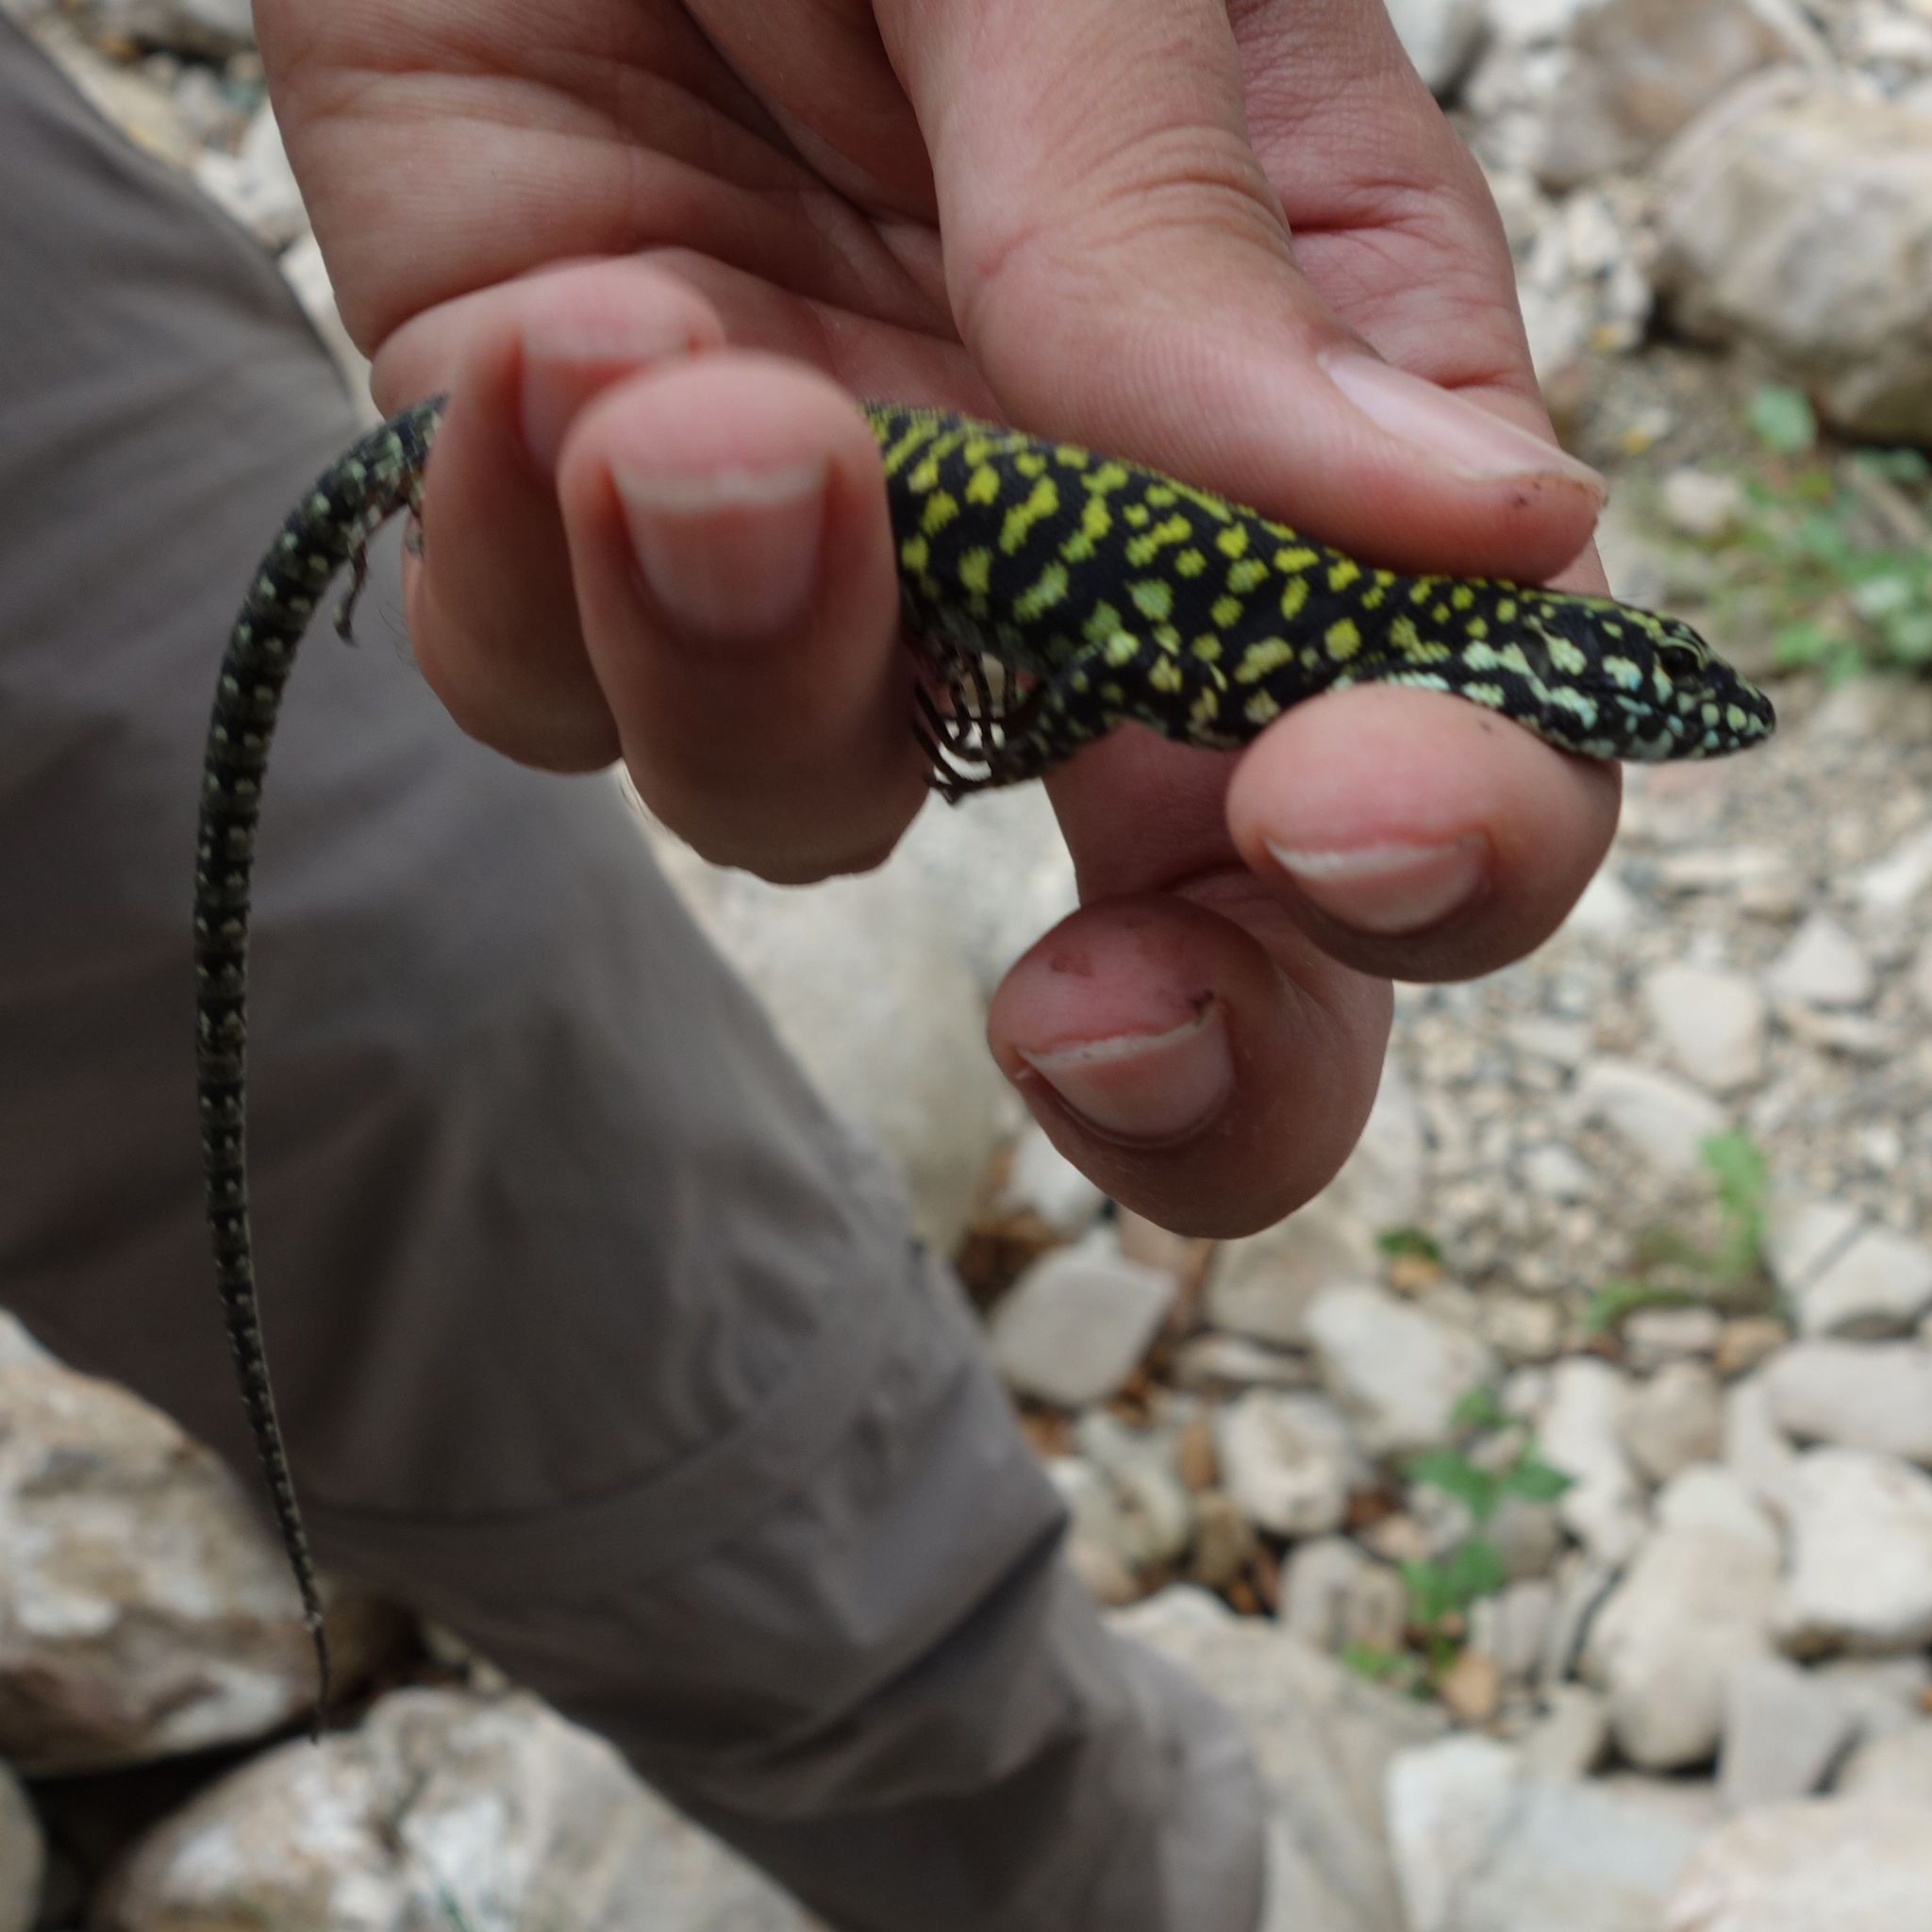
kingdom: Animalia
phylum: Chordata
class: Squamata
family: Lacertidae
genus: Podarcis
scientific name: Podarcis muralis
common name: Common wall lizard
